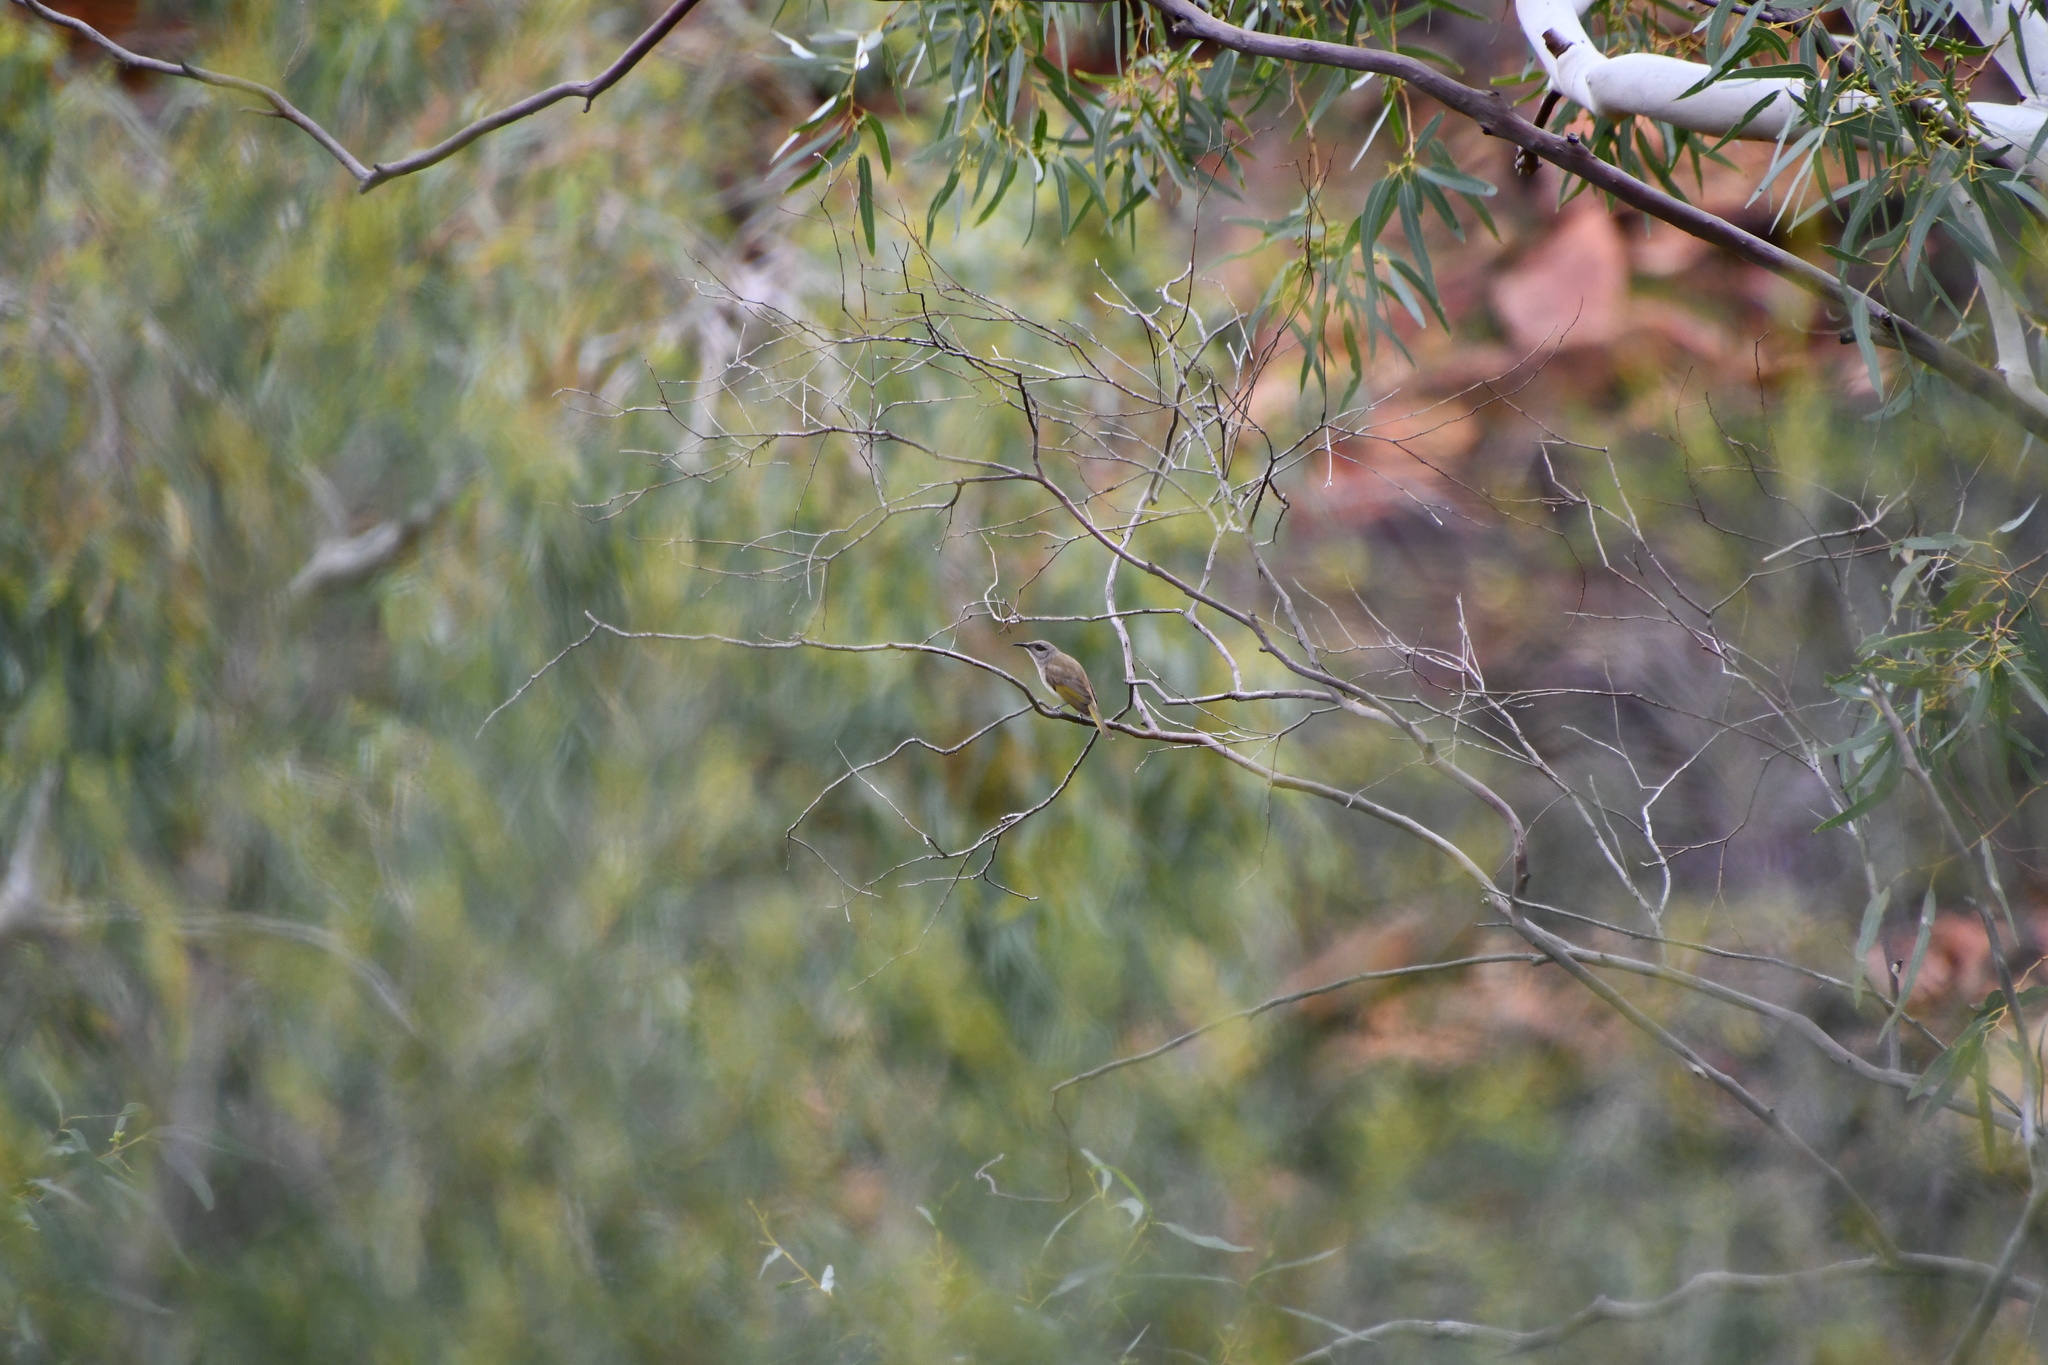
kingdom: Animalia
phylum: Chordata
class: Aves
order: Passeriformes
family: Meliphagidae
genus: Lichmera
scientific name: Lichmera indistincta
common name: Brown honeyeater
